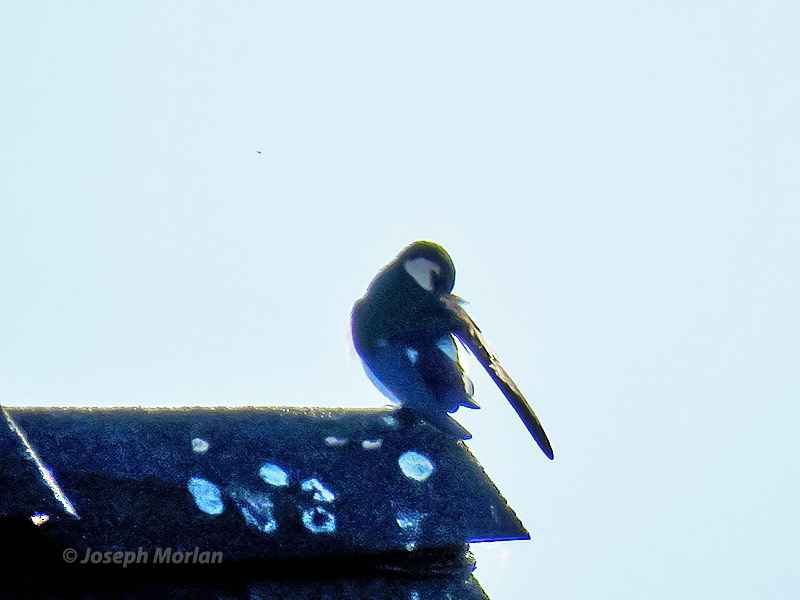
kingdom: Animalia
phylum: Chordata
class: Aves
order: Passeriformes
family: Hirundinidae
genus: Tachycineta
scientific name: Tachycineta thalassina
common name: Violet-green swallow
